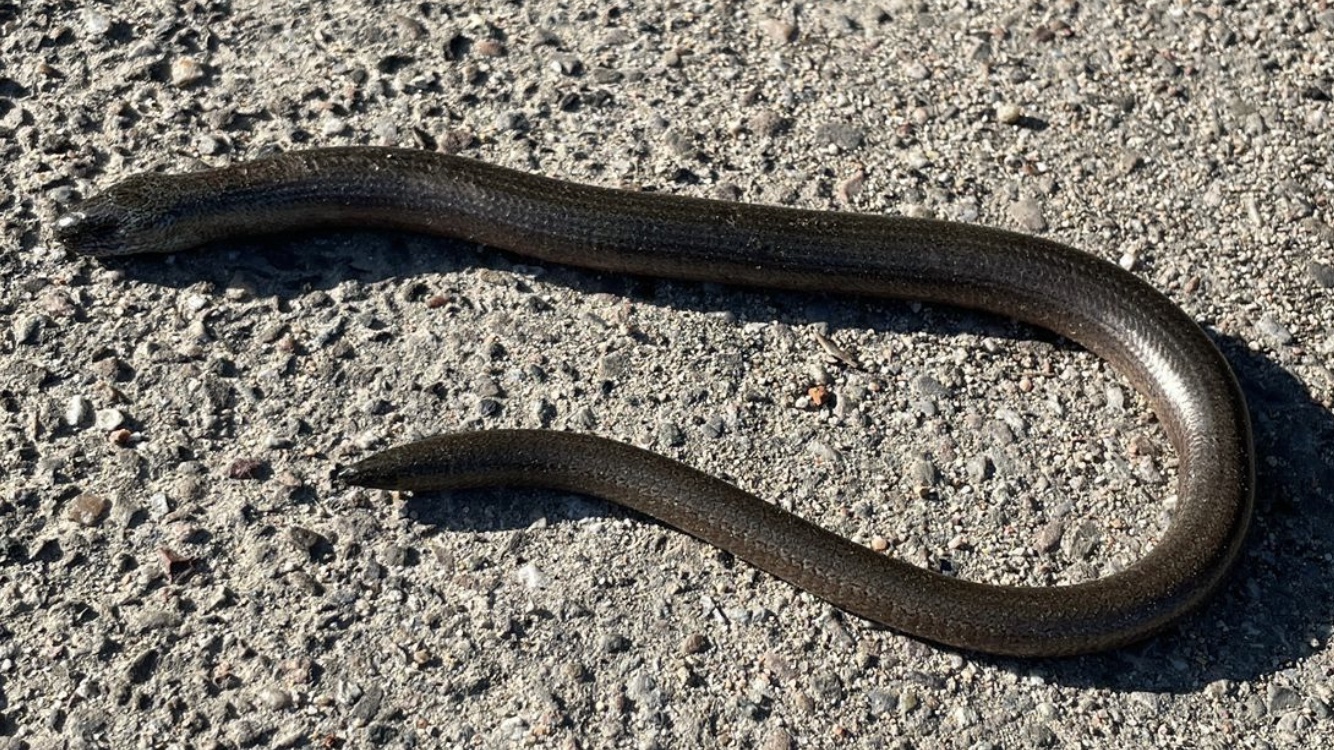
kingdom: Animalia
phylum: Chordata
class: Squamata
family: Anguidae
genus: Anguis
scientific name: Anguis fragilis
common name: Slow worm
